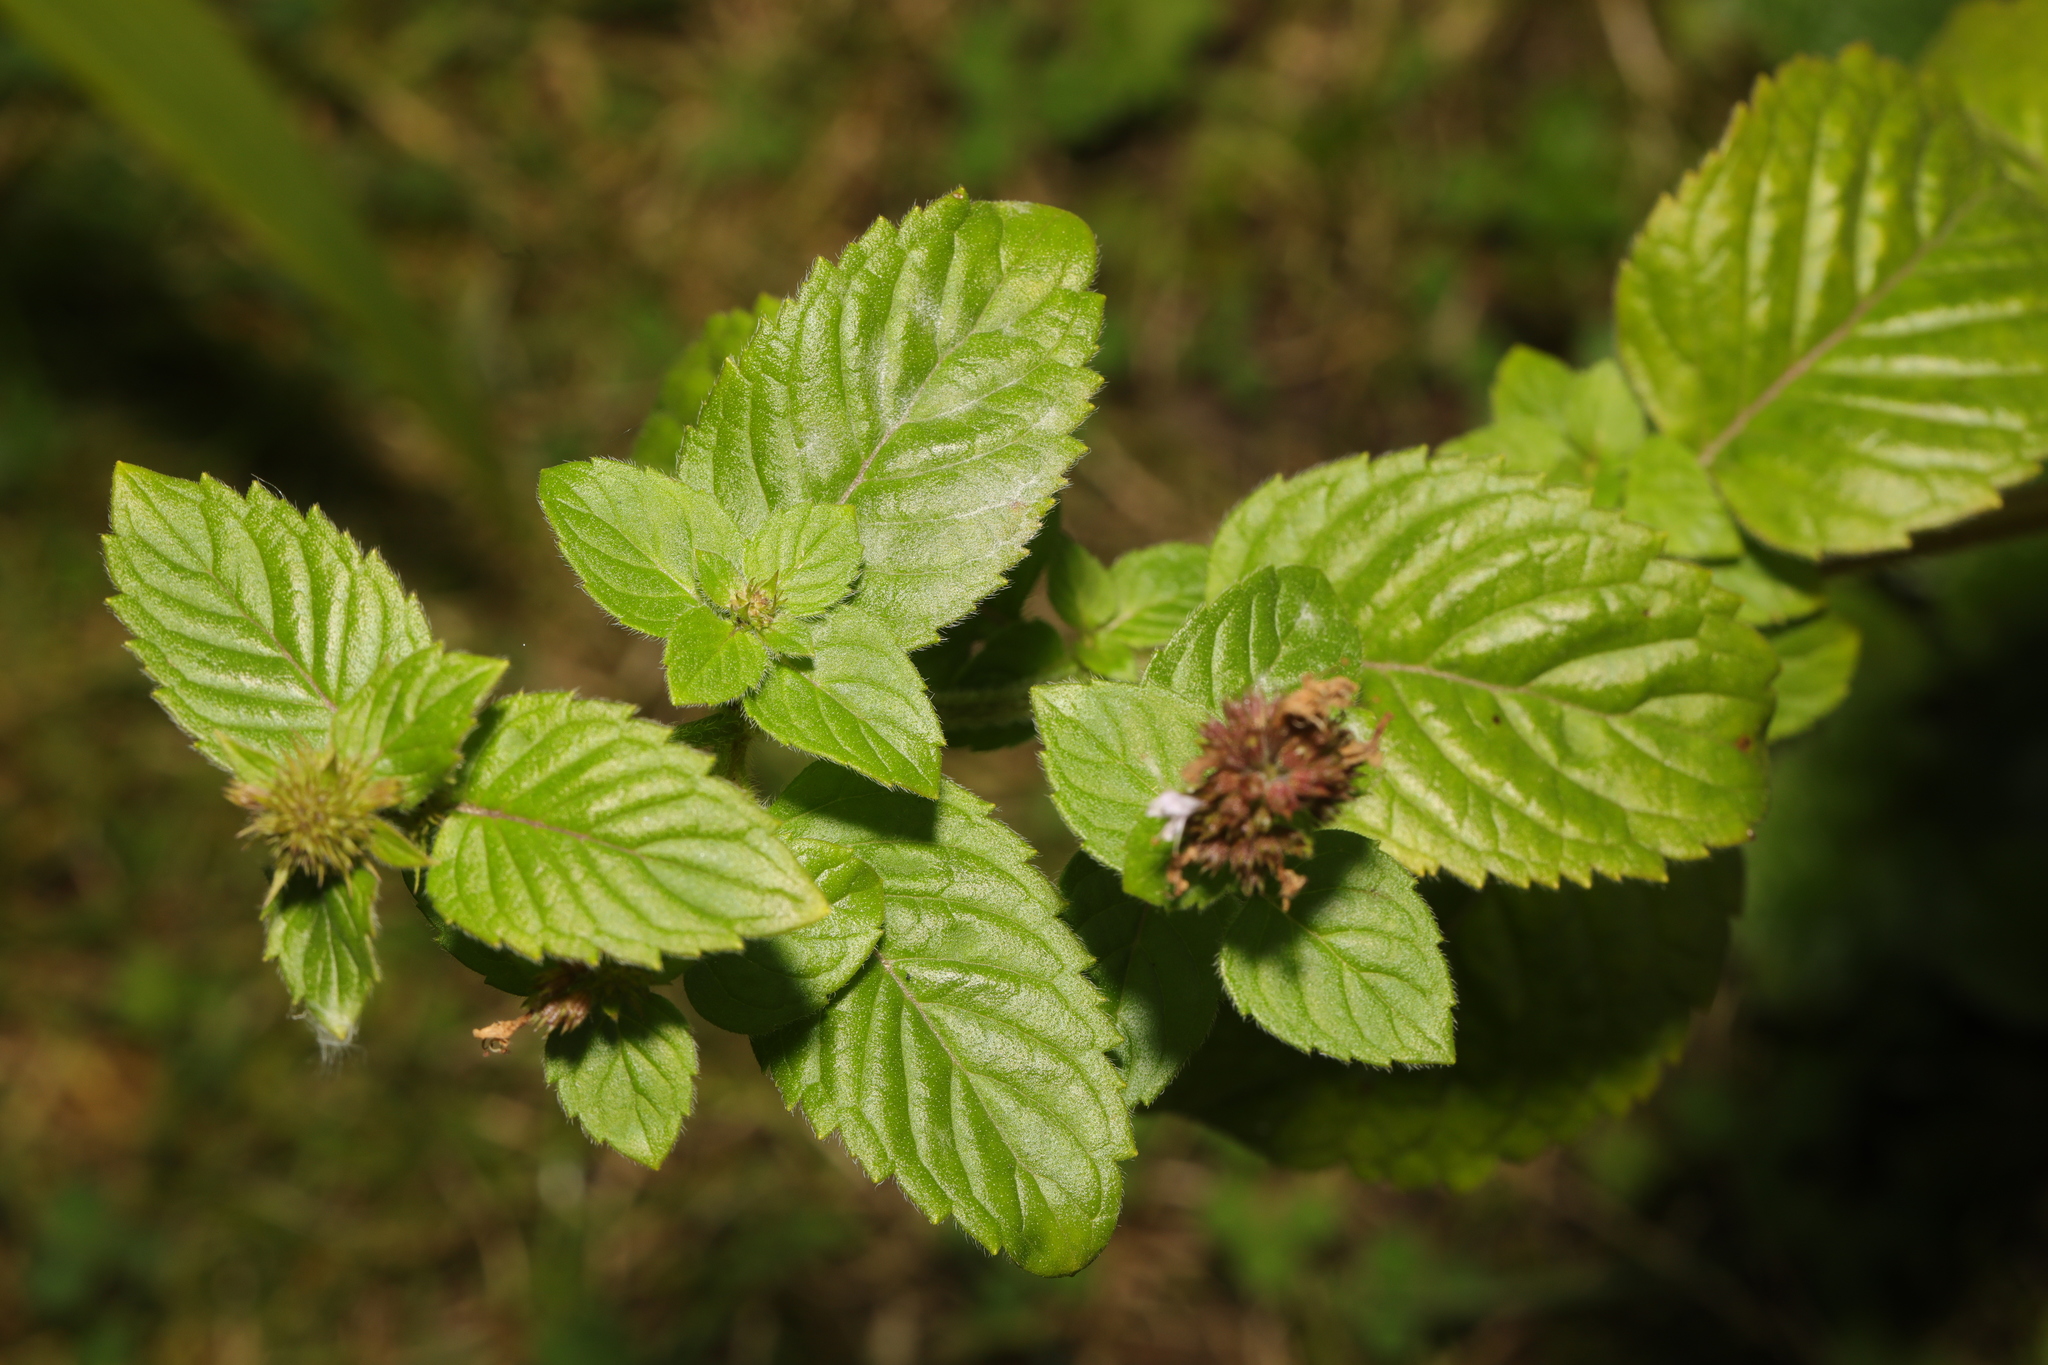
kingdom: Fungi
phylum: Ascomycota
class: Leotiomycetes
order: Helotiales
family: Erysiphaceae
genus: Golovinomyces
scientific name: Golovinomyces monardae
